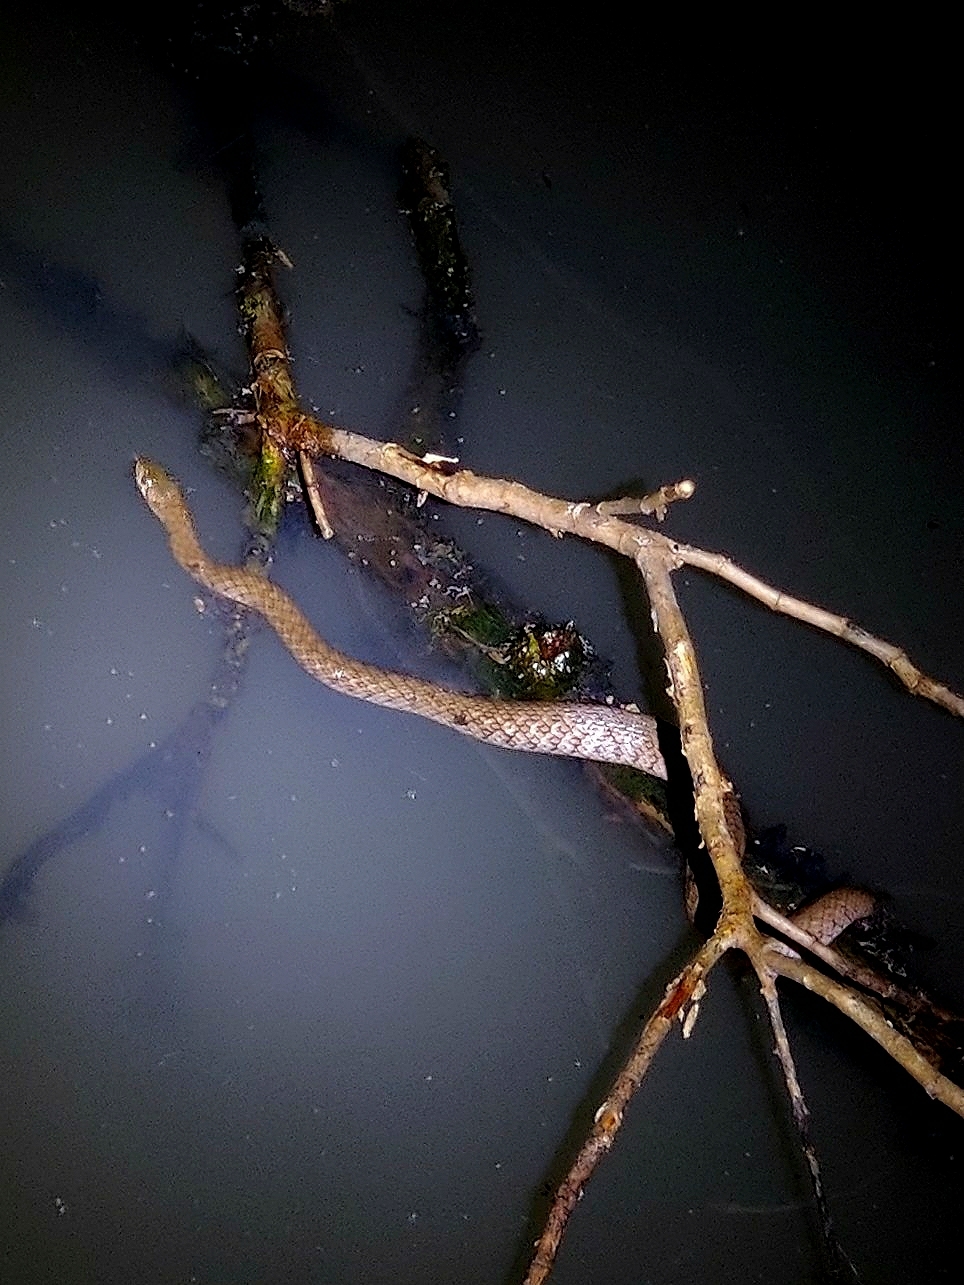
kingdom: Animalia
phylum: Chordata
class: Squamata
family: Colubridae
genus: Fowlea
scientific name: Fowlea piscator
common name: Asiatic water snake
